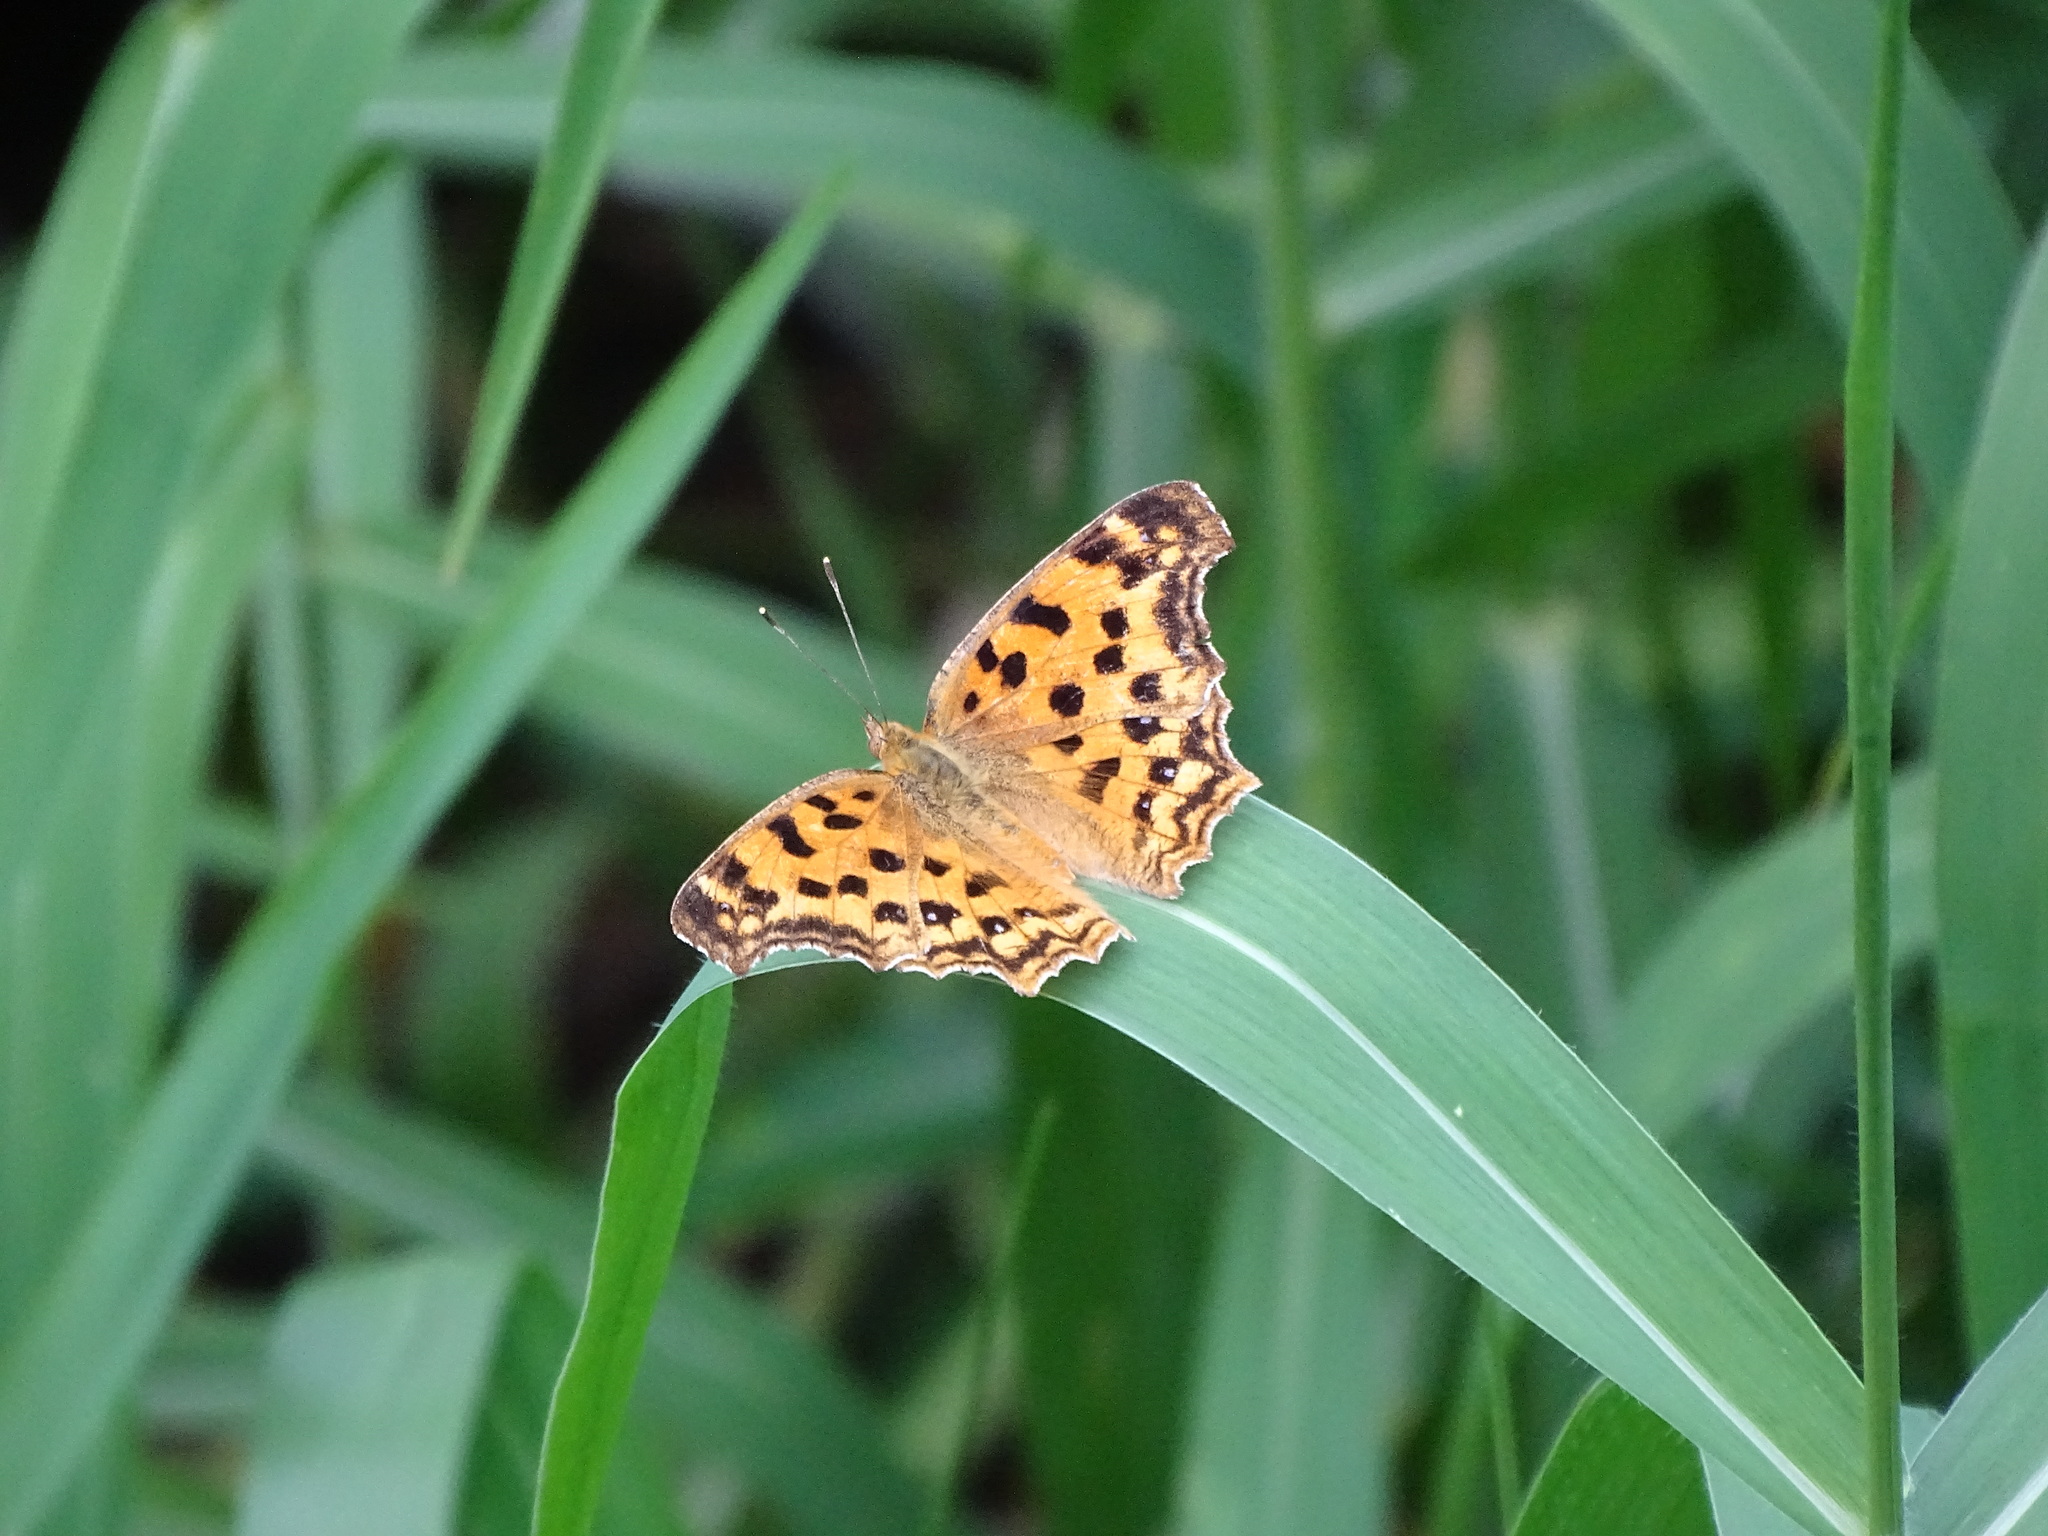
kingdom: Animalia
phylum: Arthropoda
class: Insecta
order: Lepidoptera
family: Nymphalidae
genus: Polygonia
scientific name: Polygonia c-aureum
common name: Asian comma
